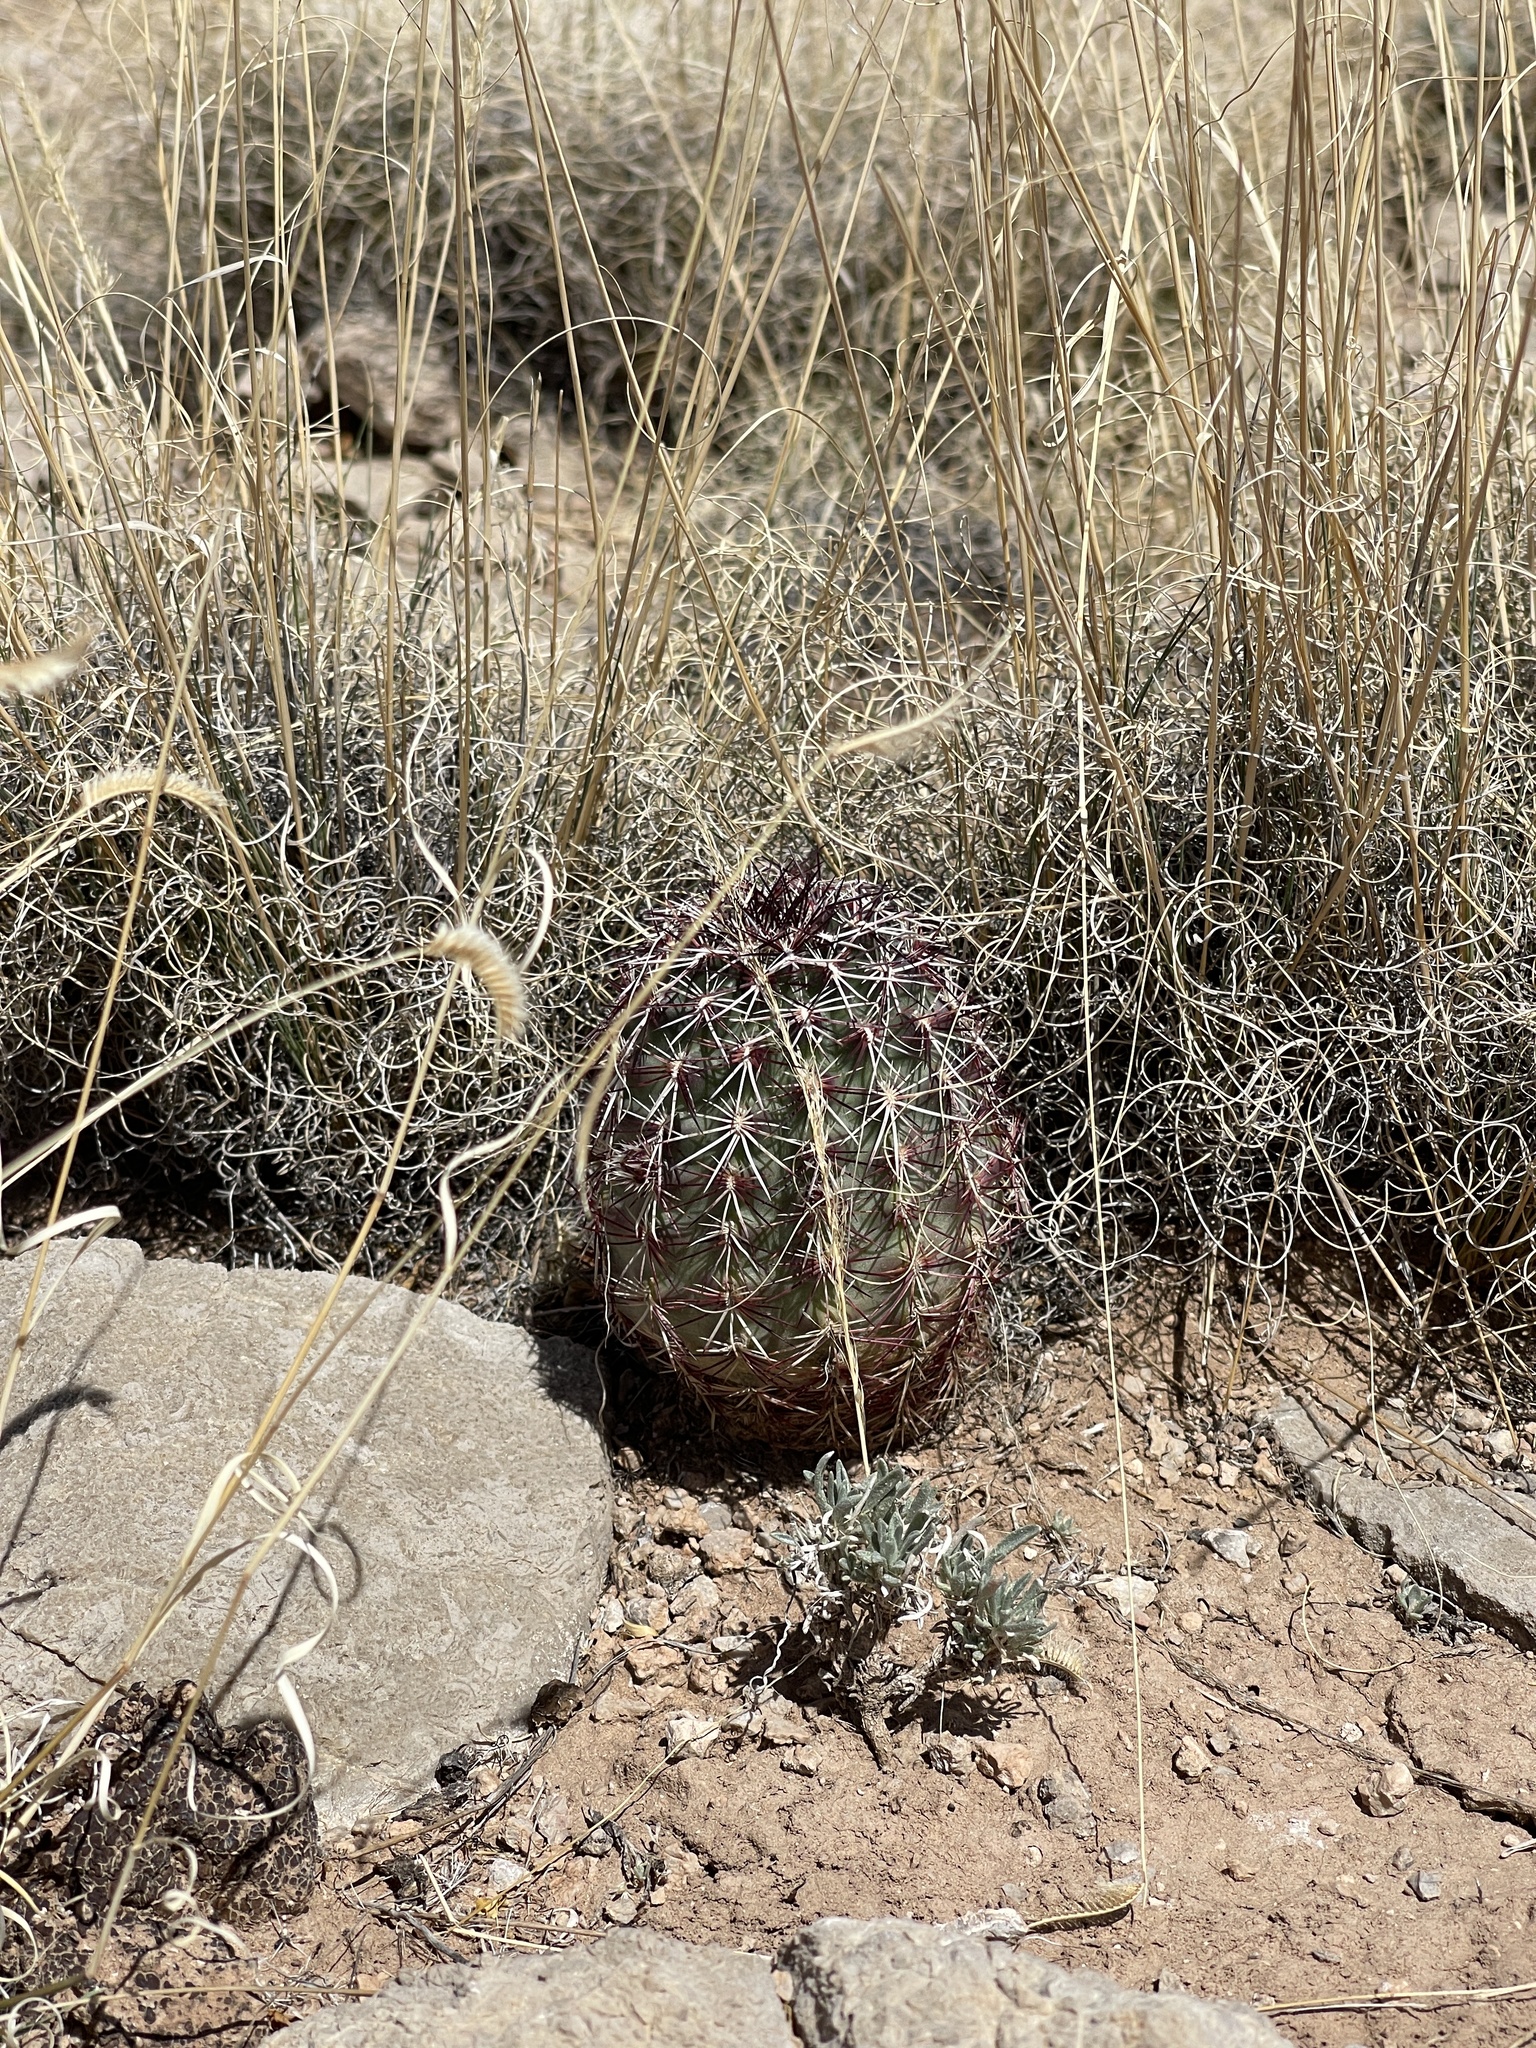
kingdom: Plantae
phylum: Tracheophyta
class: Magnoliopsida
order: Caryophyllales
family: Cactaceae
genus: Echinocereus
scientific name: Echinocereus viridiflorus
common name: Nylon hedgehog cactus
